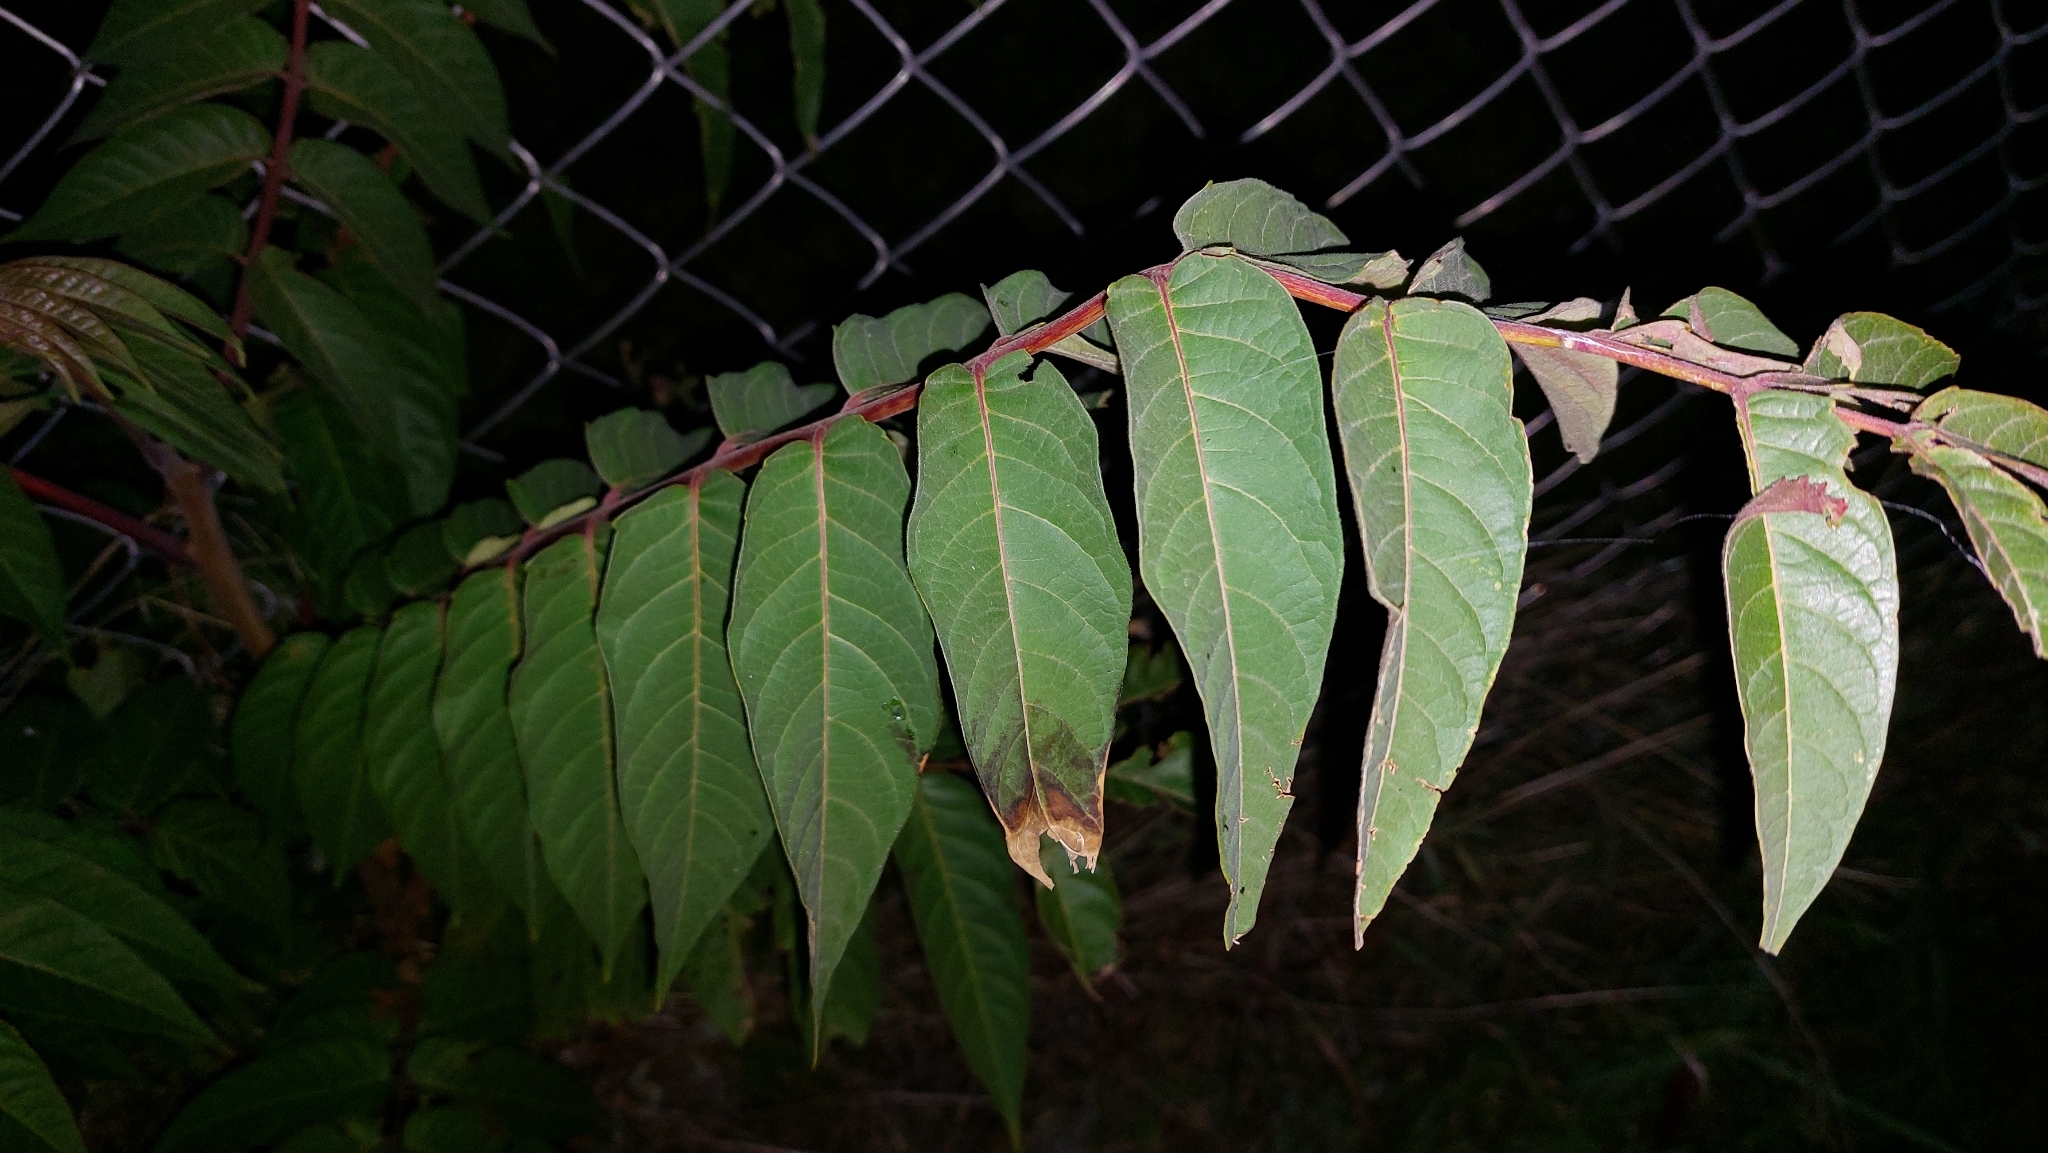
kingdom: Plantae
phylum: Tracheophyta
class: Magnoliopsida
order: Sapindales
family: Simaroubaceae
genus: Ailanthus
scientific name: Ailanthus altissima
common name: Tree-of-heaven
